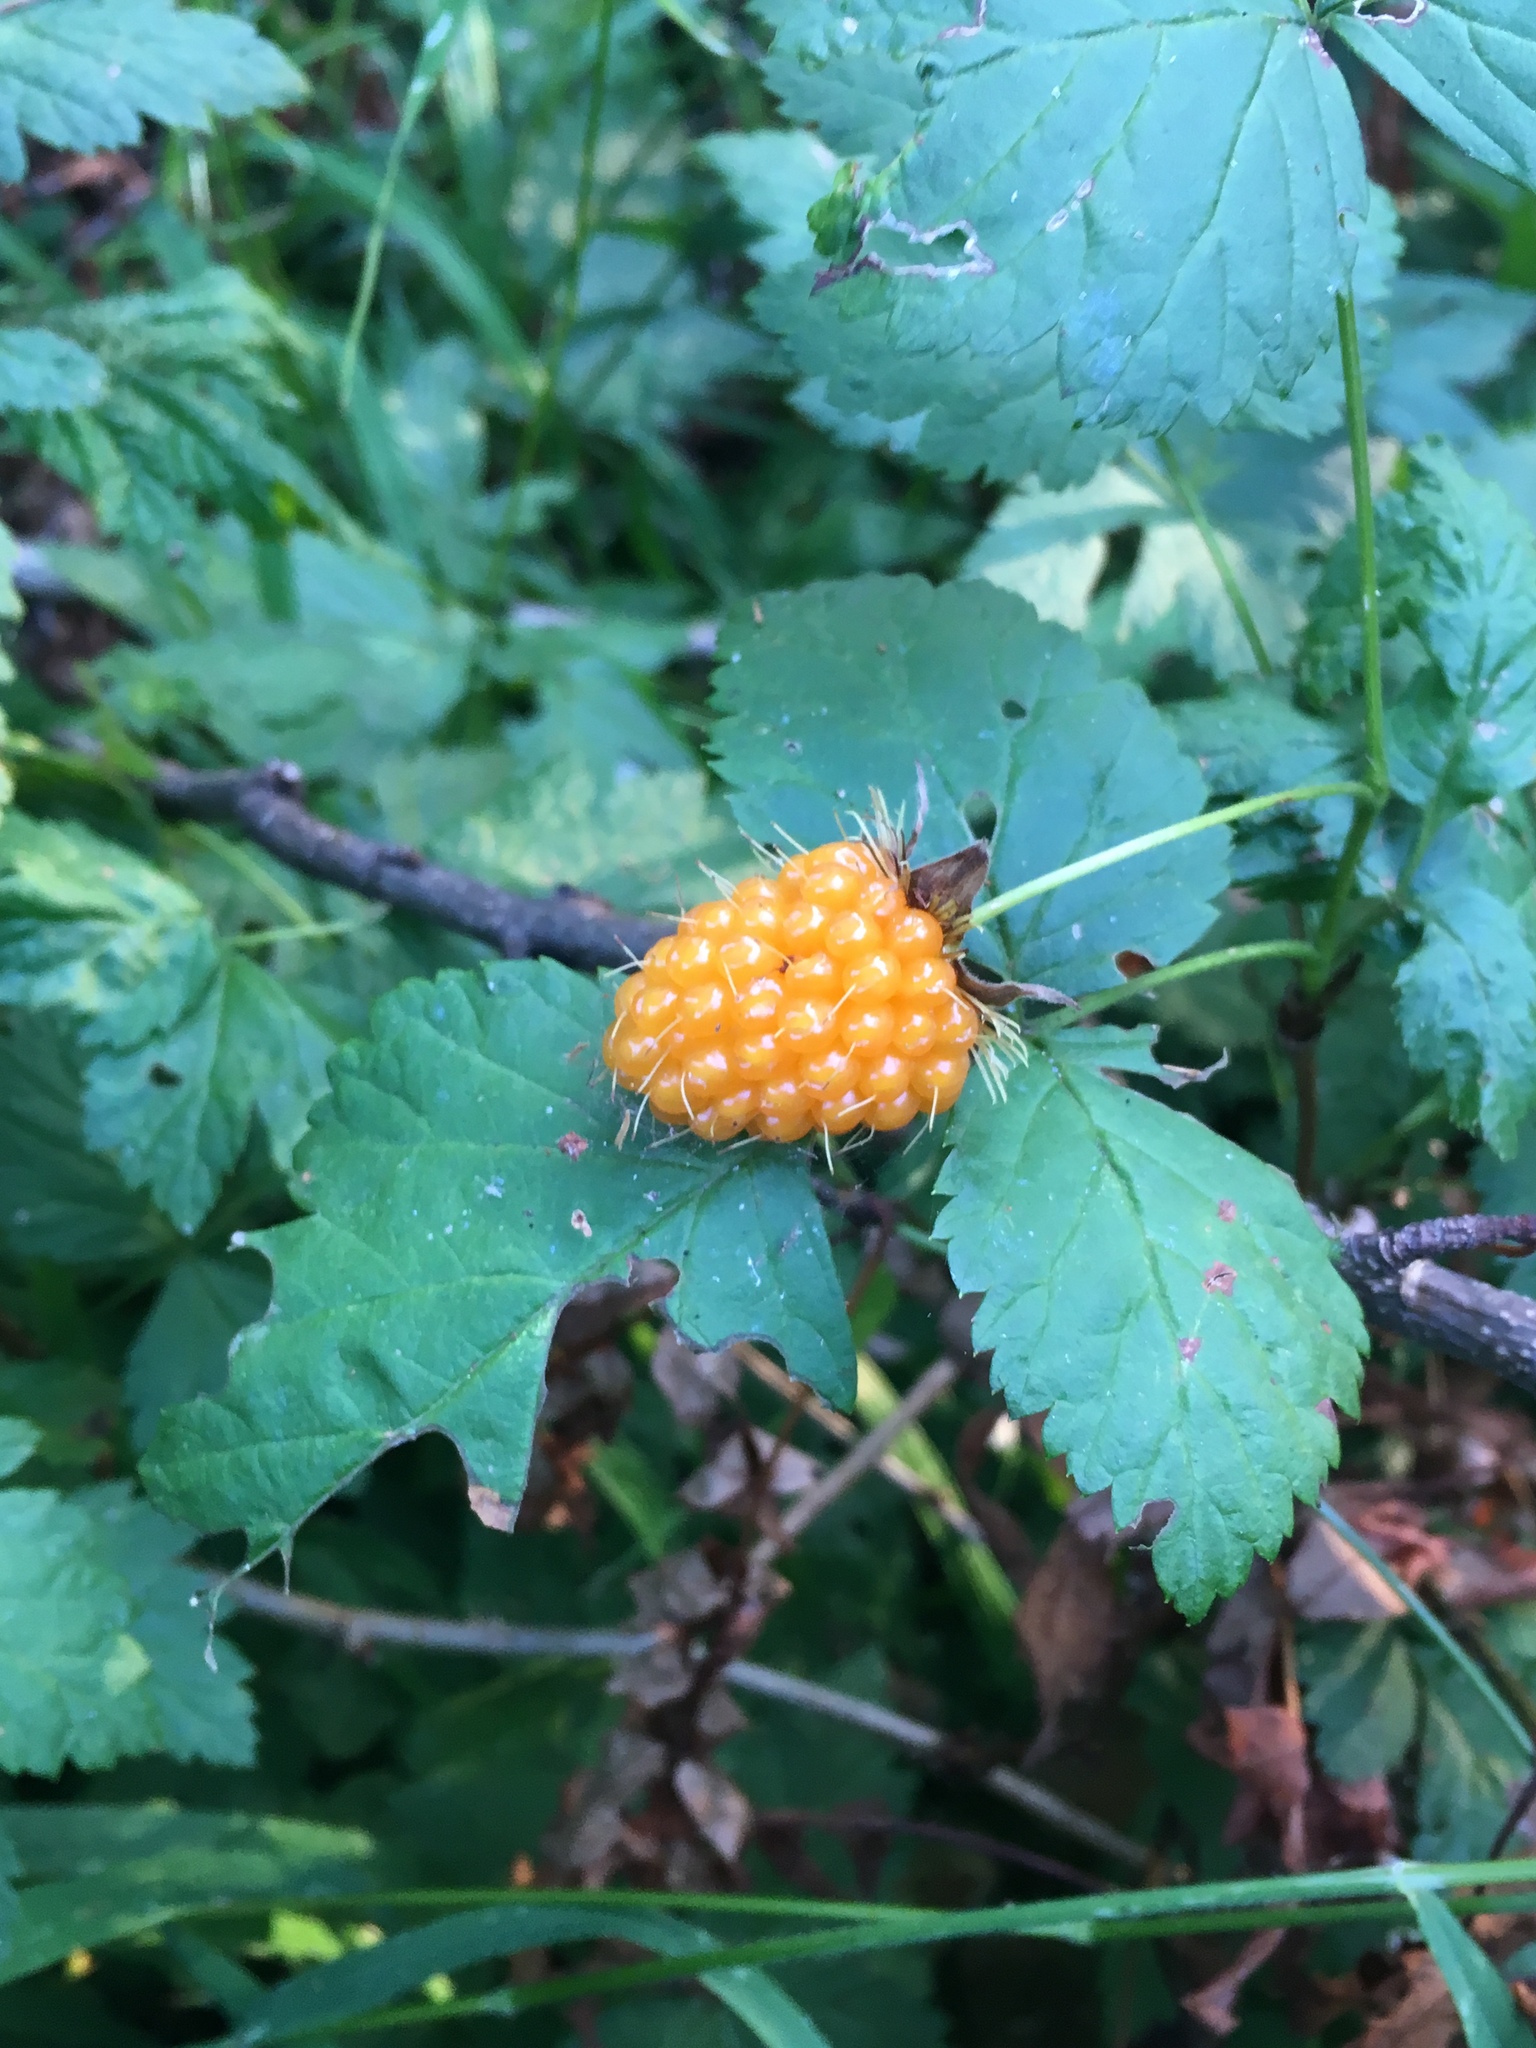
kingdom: Plantae
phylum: Tracheophyta
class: Magnoliopsida
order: Rosales
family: Rosaceae
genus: Rubus
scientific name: Rubus spectabilis
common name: Salmonberry
